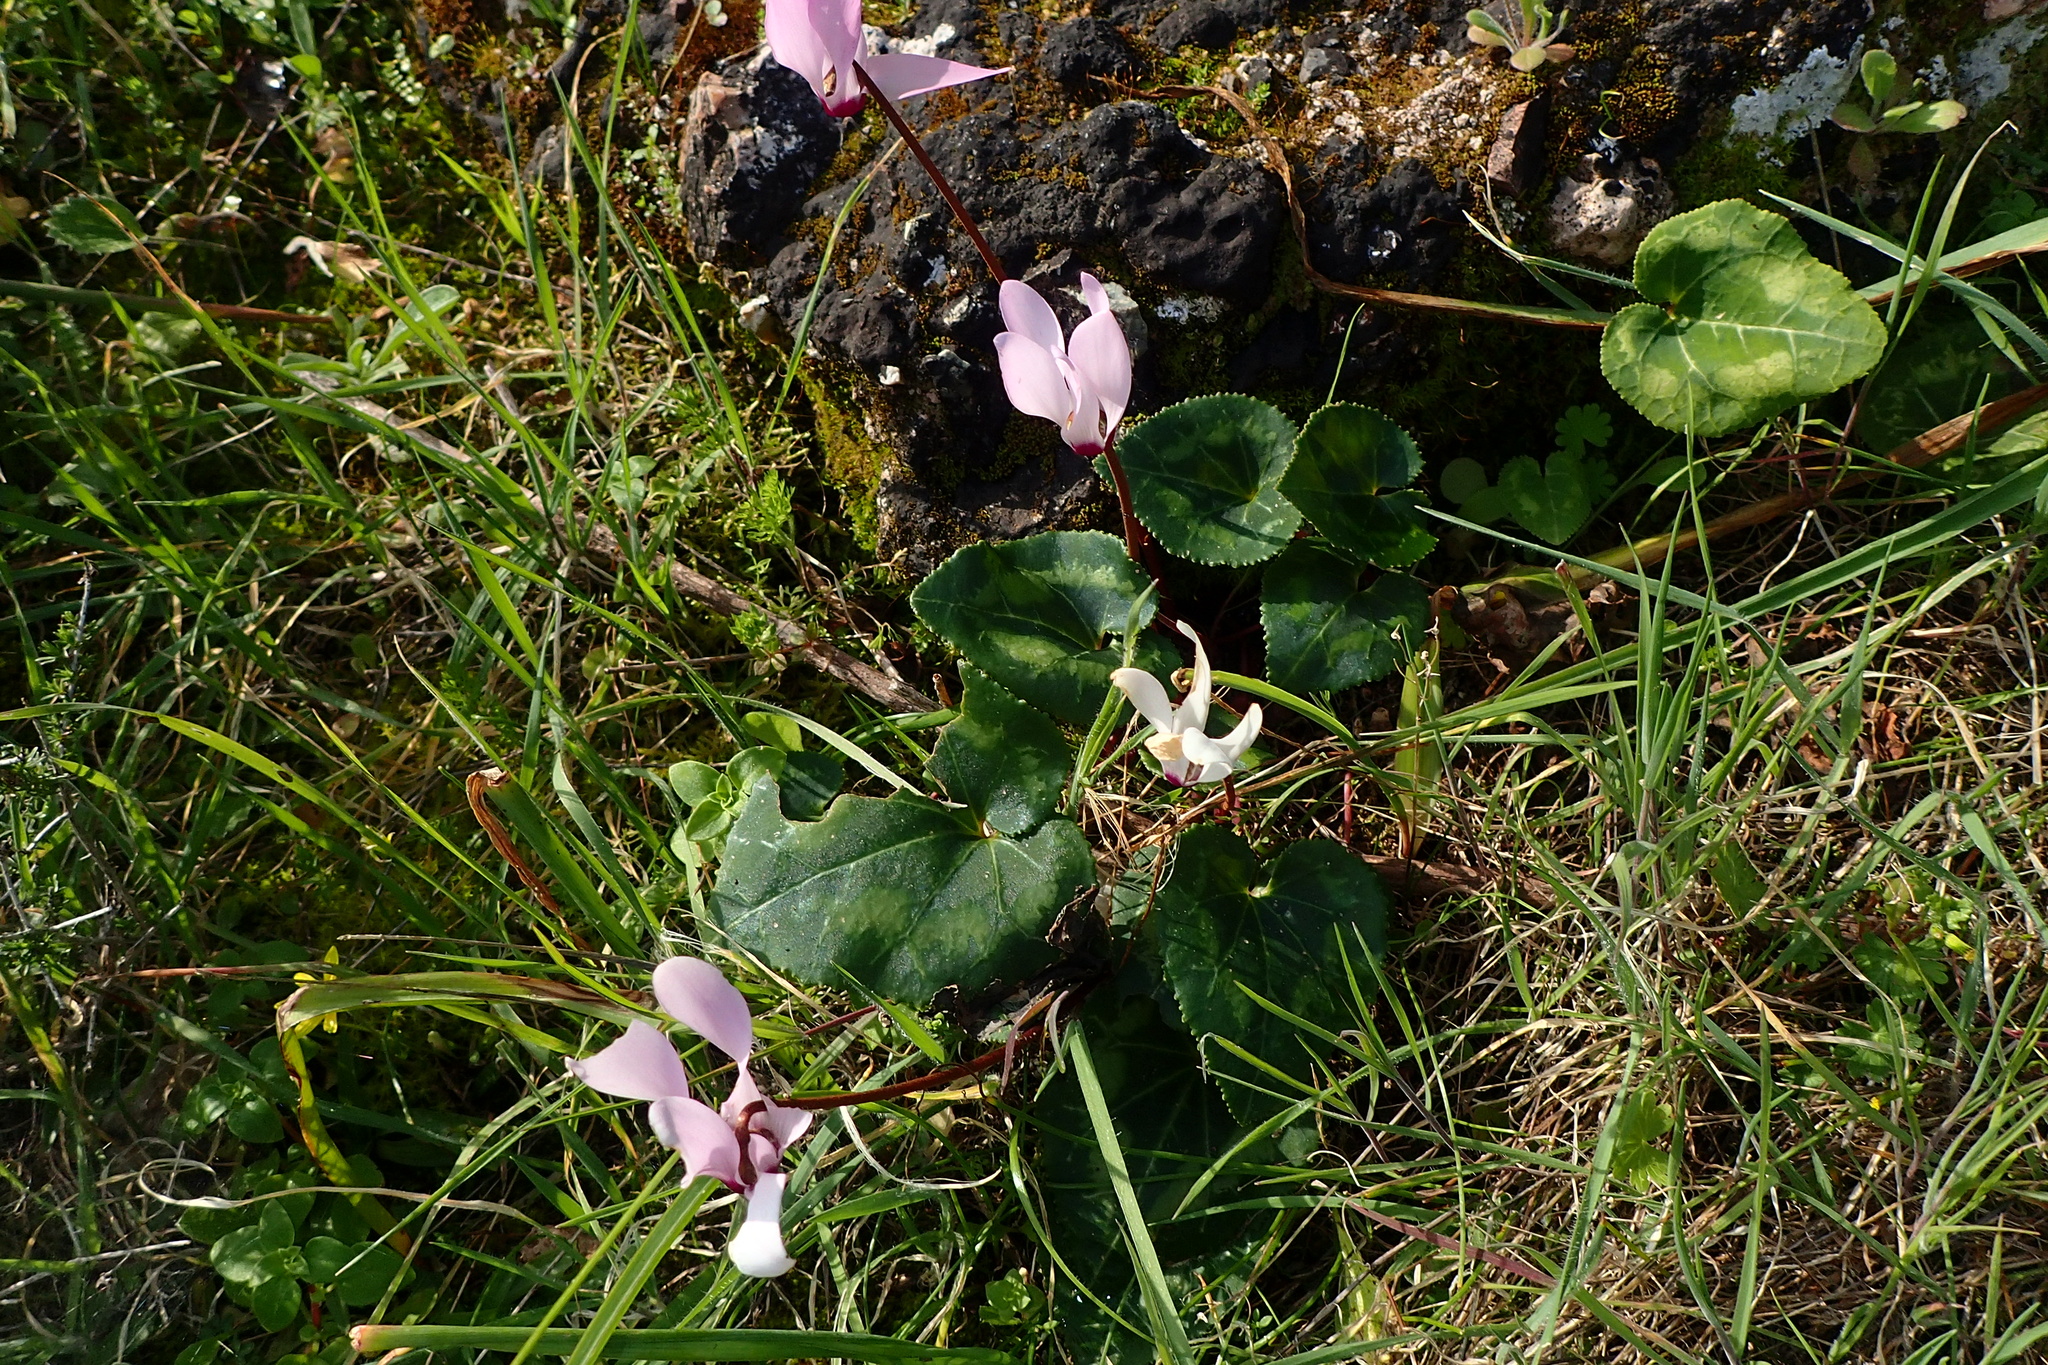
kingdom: Plantae
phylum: Tracheophyta
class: Magnoliopsida
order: Ericales
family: Primulaceae
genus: Cyclamen
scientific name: Cyclamen persicum
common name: Florist's cyclamen
